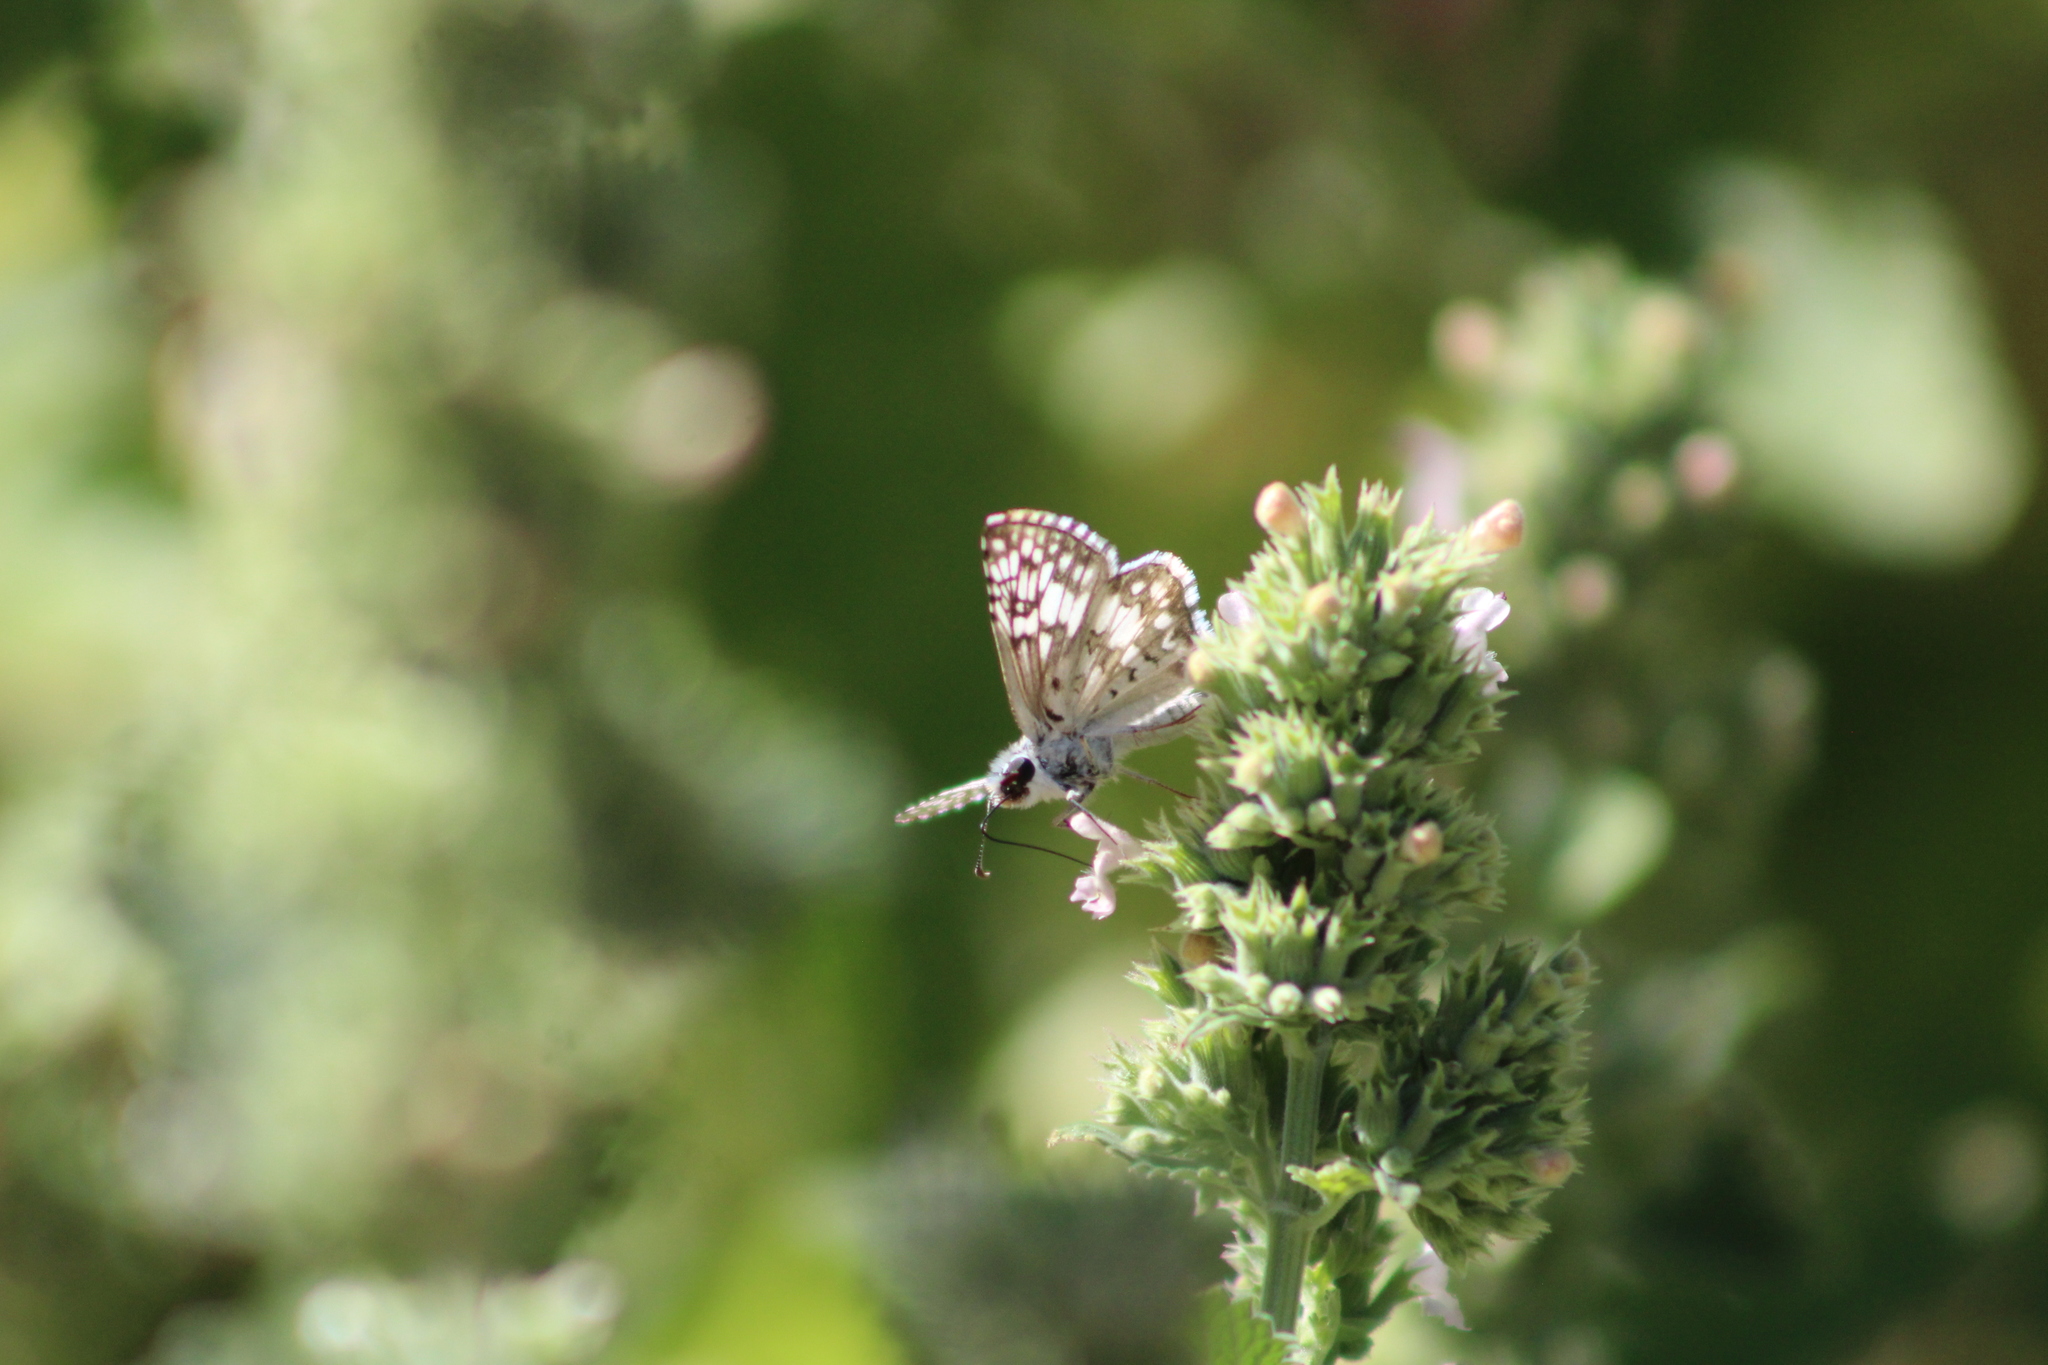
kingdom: Animalia
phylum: Arthropoda
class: Insecta
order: Lepidoptera
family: Hesperiidae
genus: Burnsius
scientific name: Burnsius communis
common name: Common checkered-skipper
